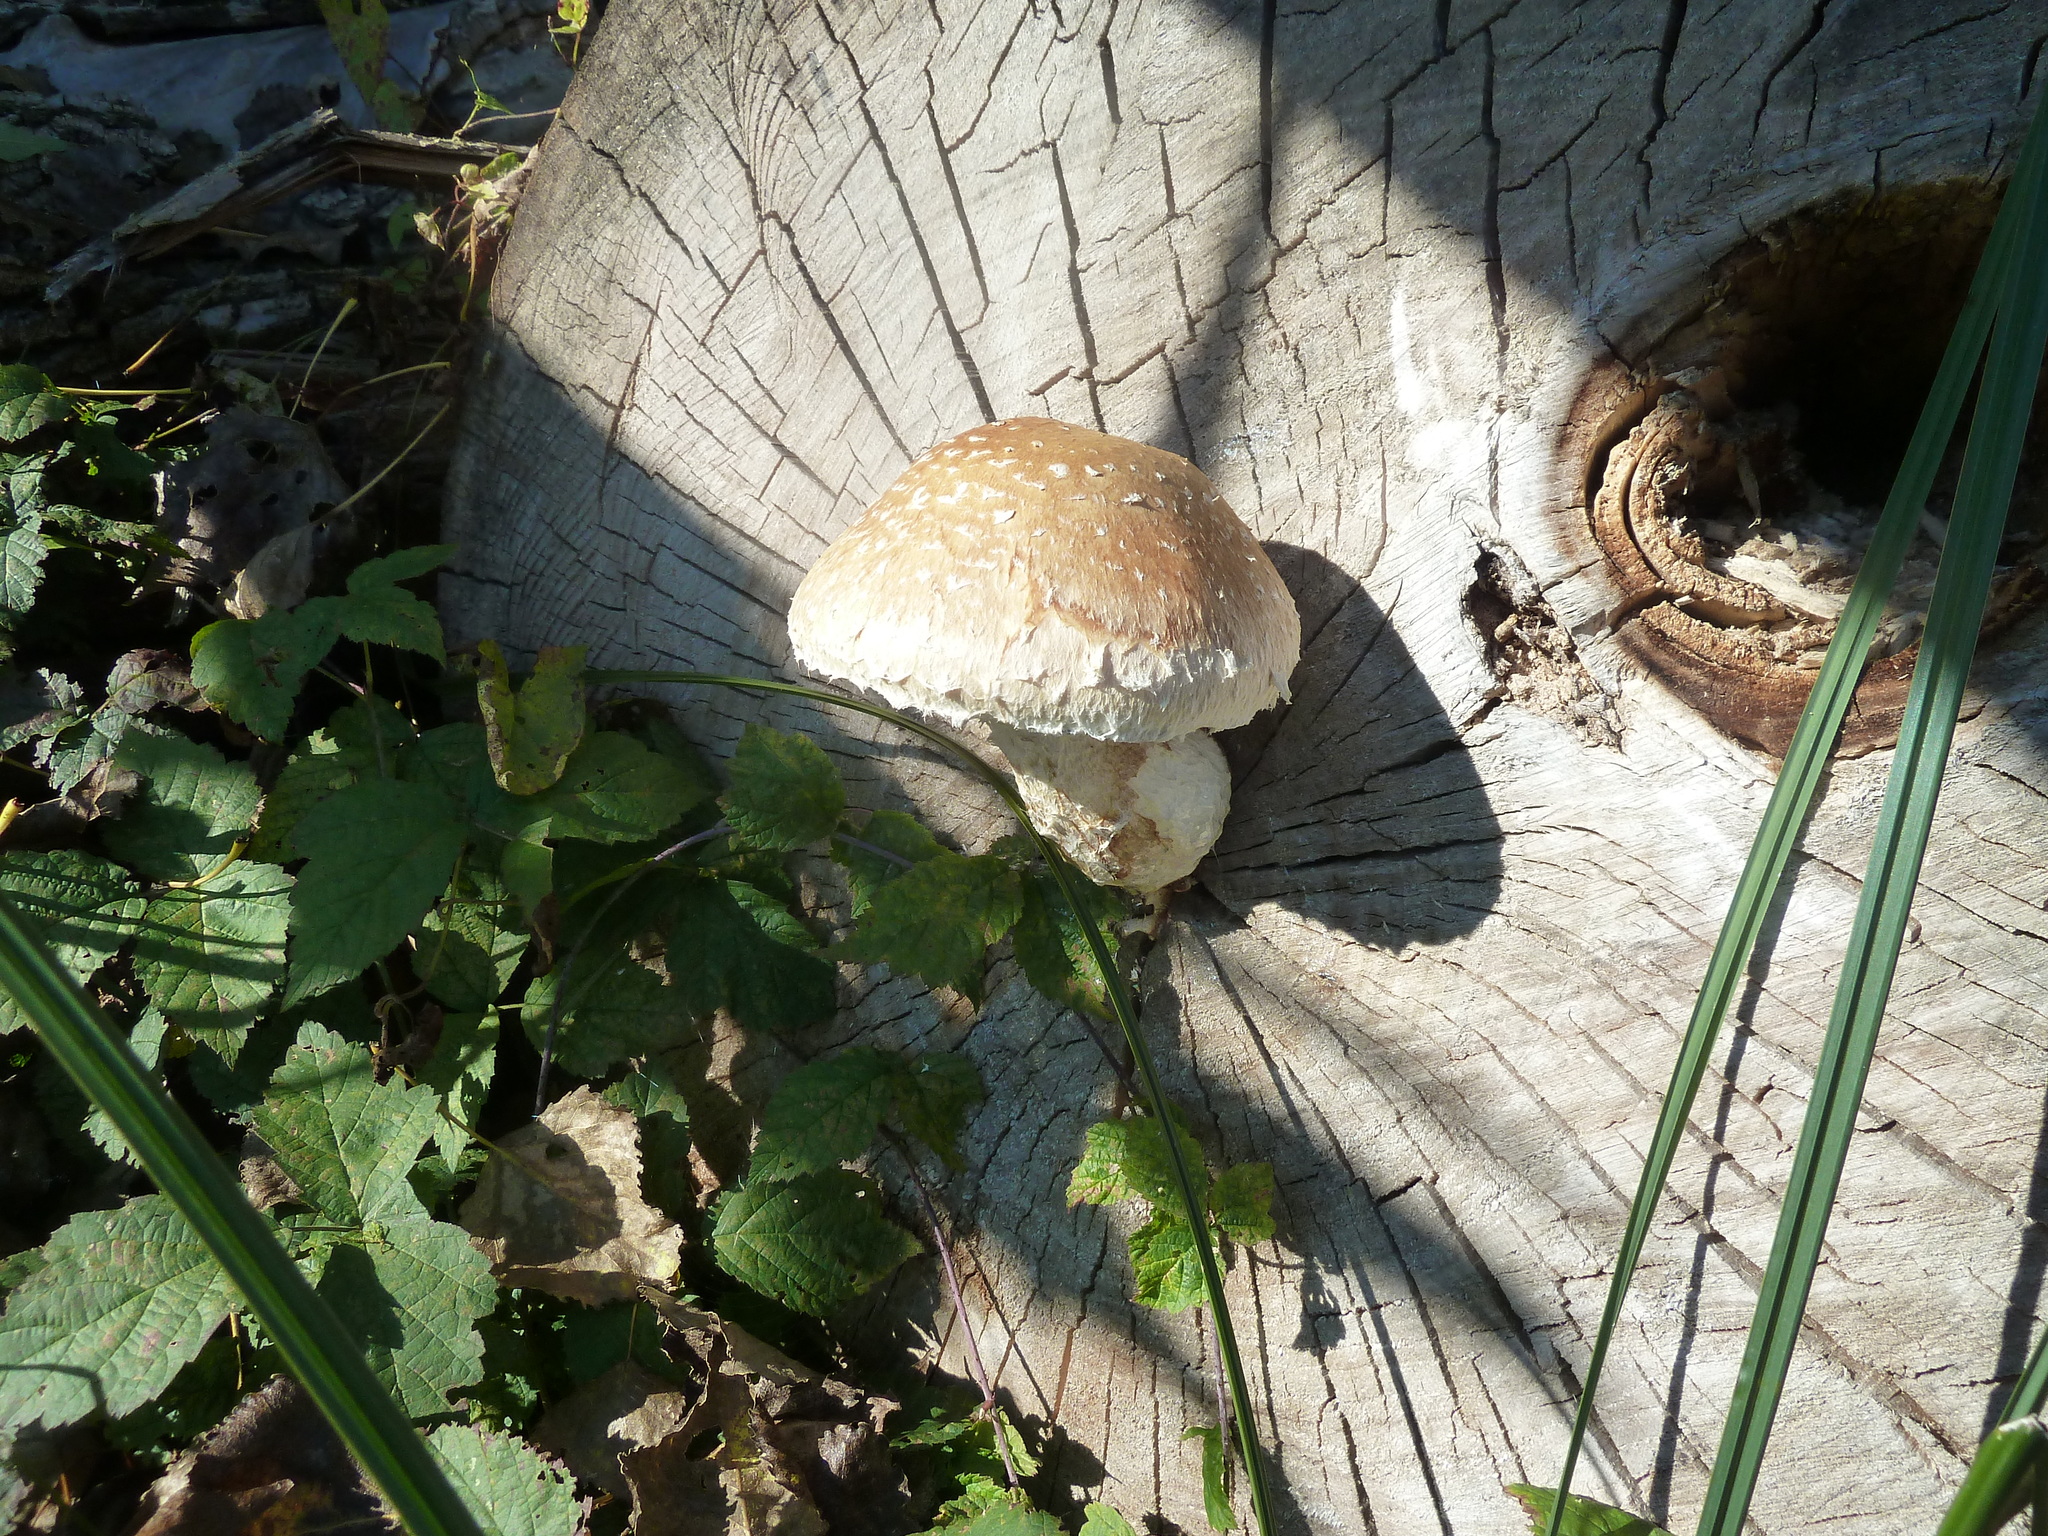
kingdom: Fungi
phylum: Basidiomycota
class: Agaricomycetes
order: Agaricales
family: Strophariaceae
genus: Pholiota
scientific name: Pholiota populnea
